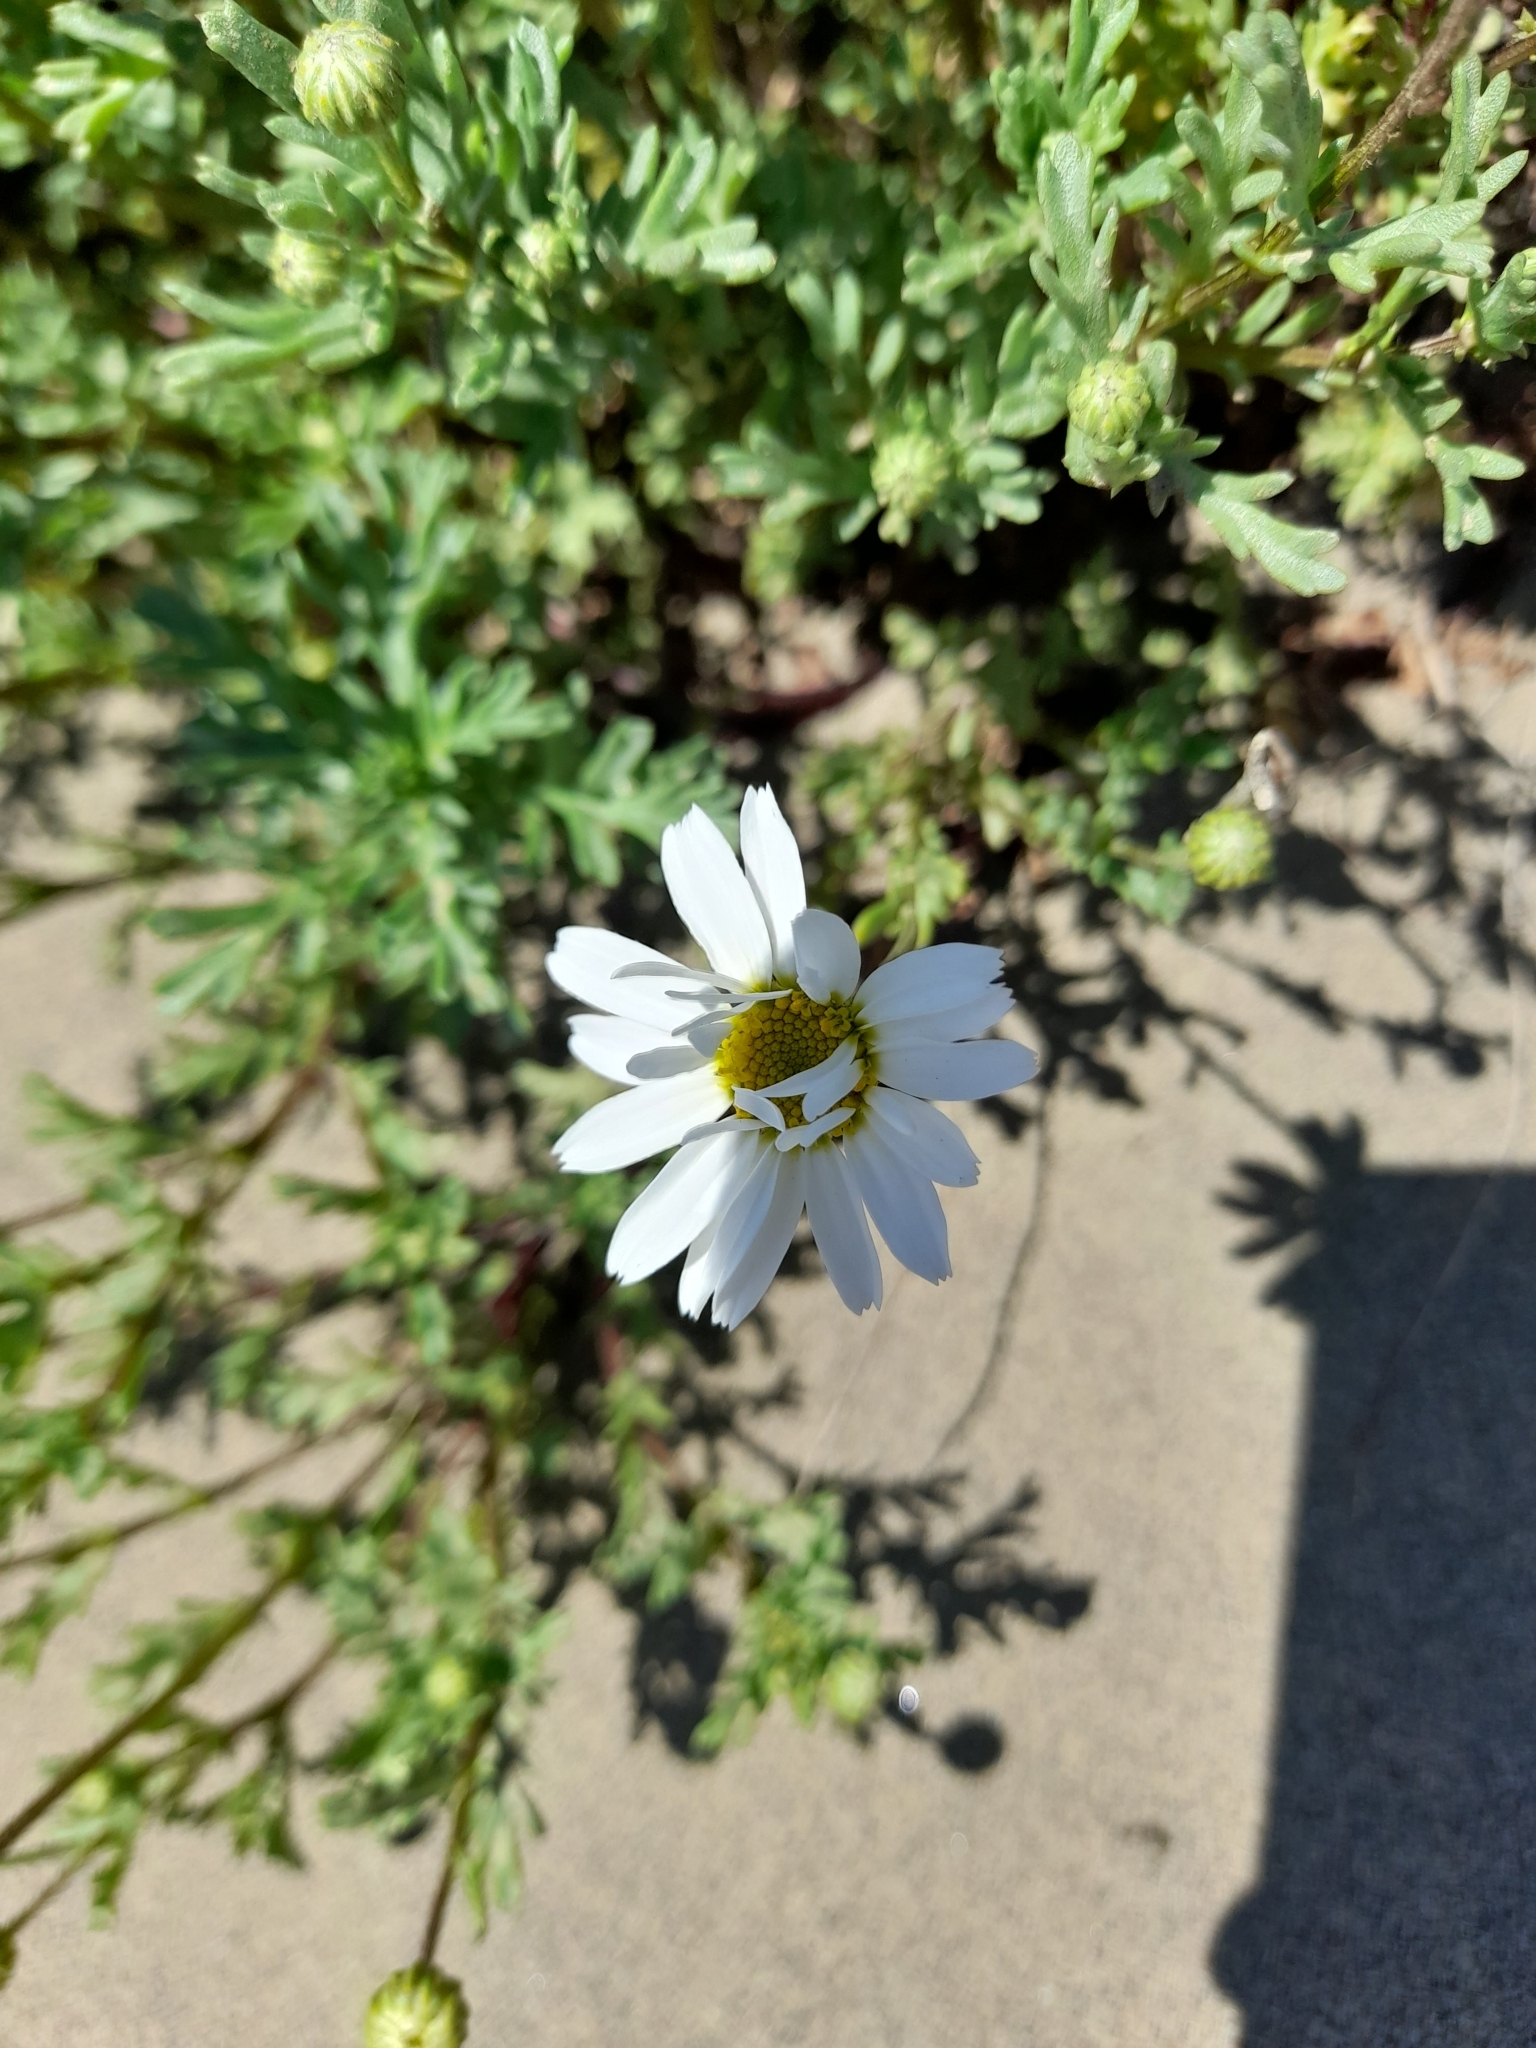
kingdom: Plantae
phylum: Tracheophyta
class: Magnoliopsida
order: Asterales
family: Asteraceae
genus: Anthemis
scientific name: Anthemis maritima
